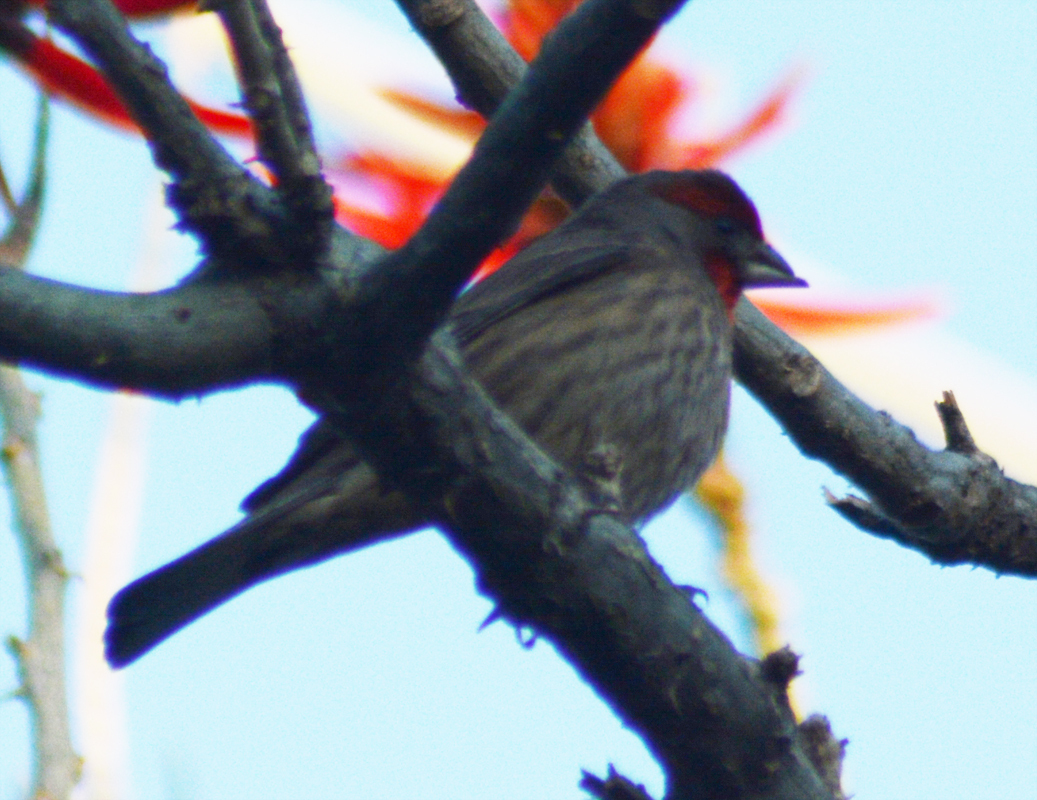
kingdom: Animalia
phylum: Chordata
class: Aves
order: Passeriformes
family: Fringillidae
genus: Haemorhous
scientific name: Haemorhous mexicanus
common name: House finch
